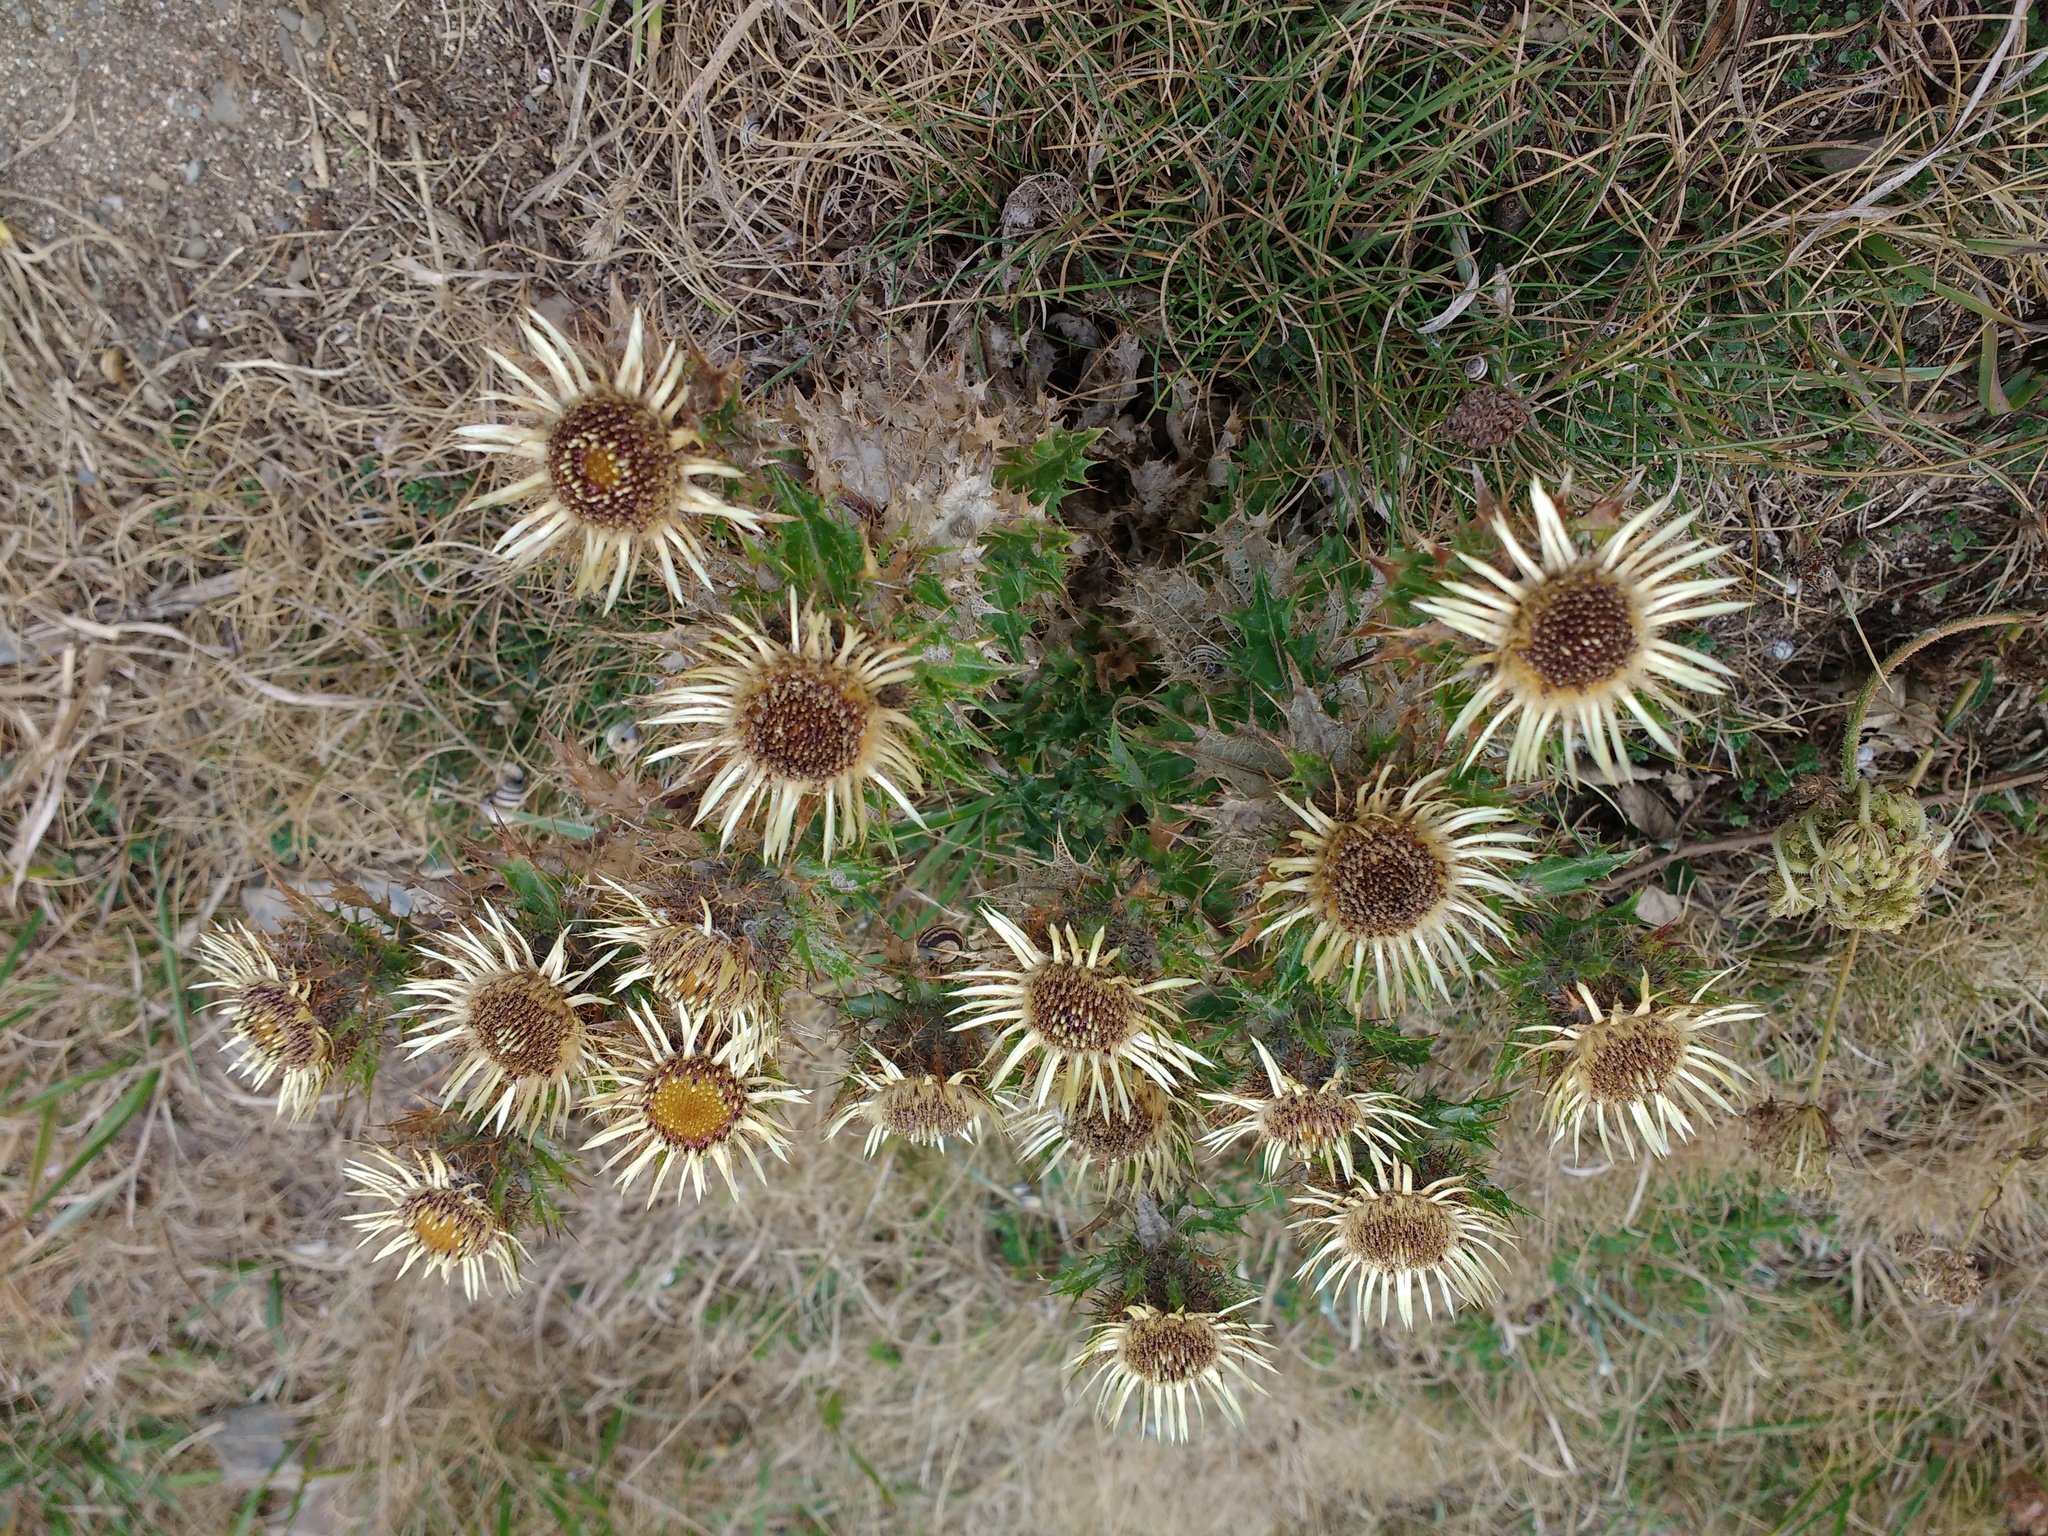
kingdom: Plantae
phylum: Tracheophyta
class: Magnoliopsida
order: Asterales
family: Asteraceae
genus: Carlina
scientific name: Carlina vulgaris
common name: Carline thistle
